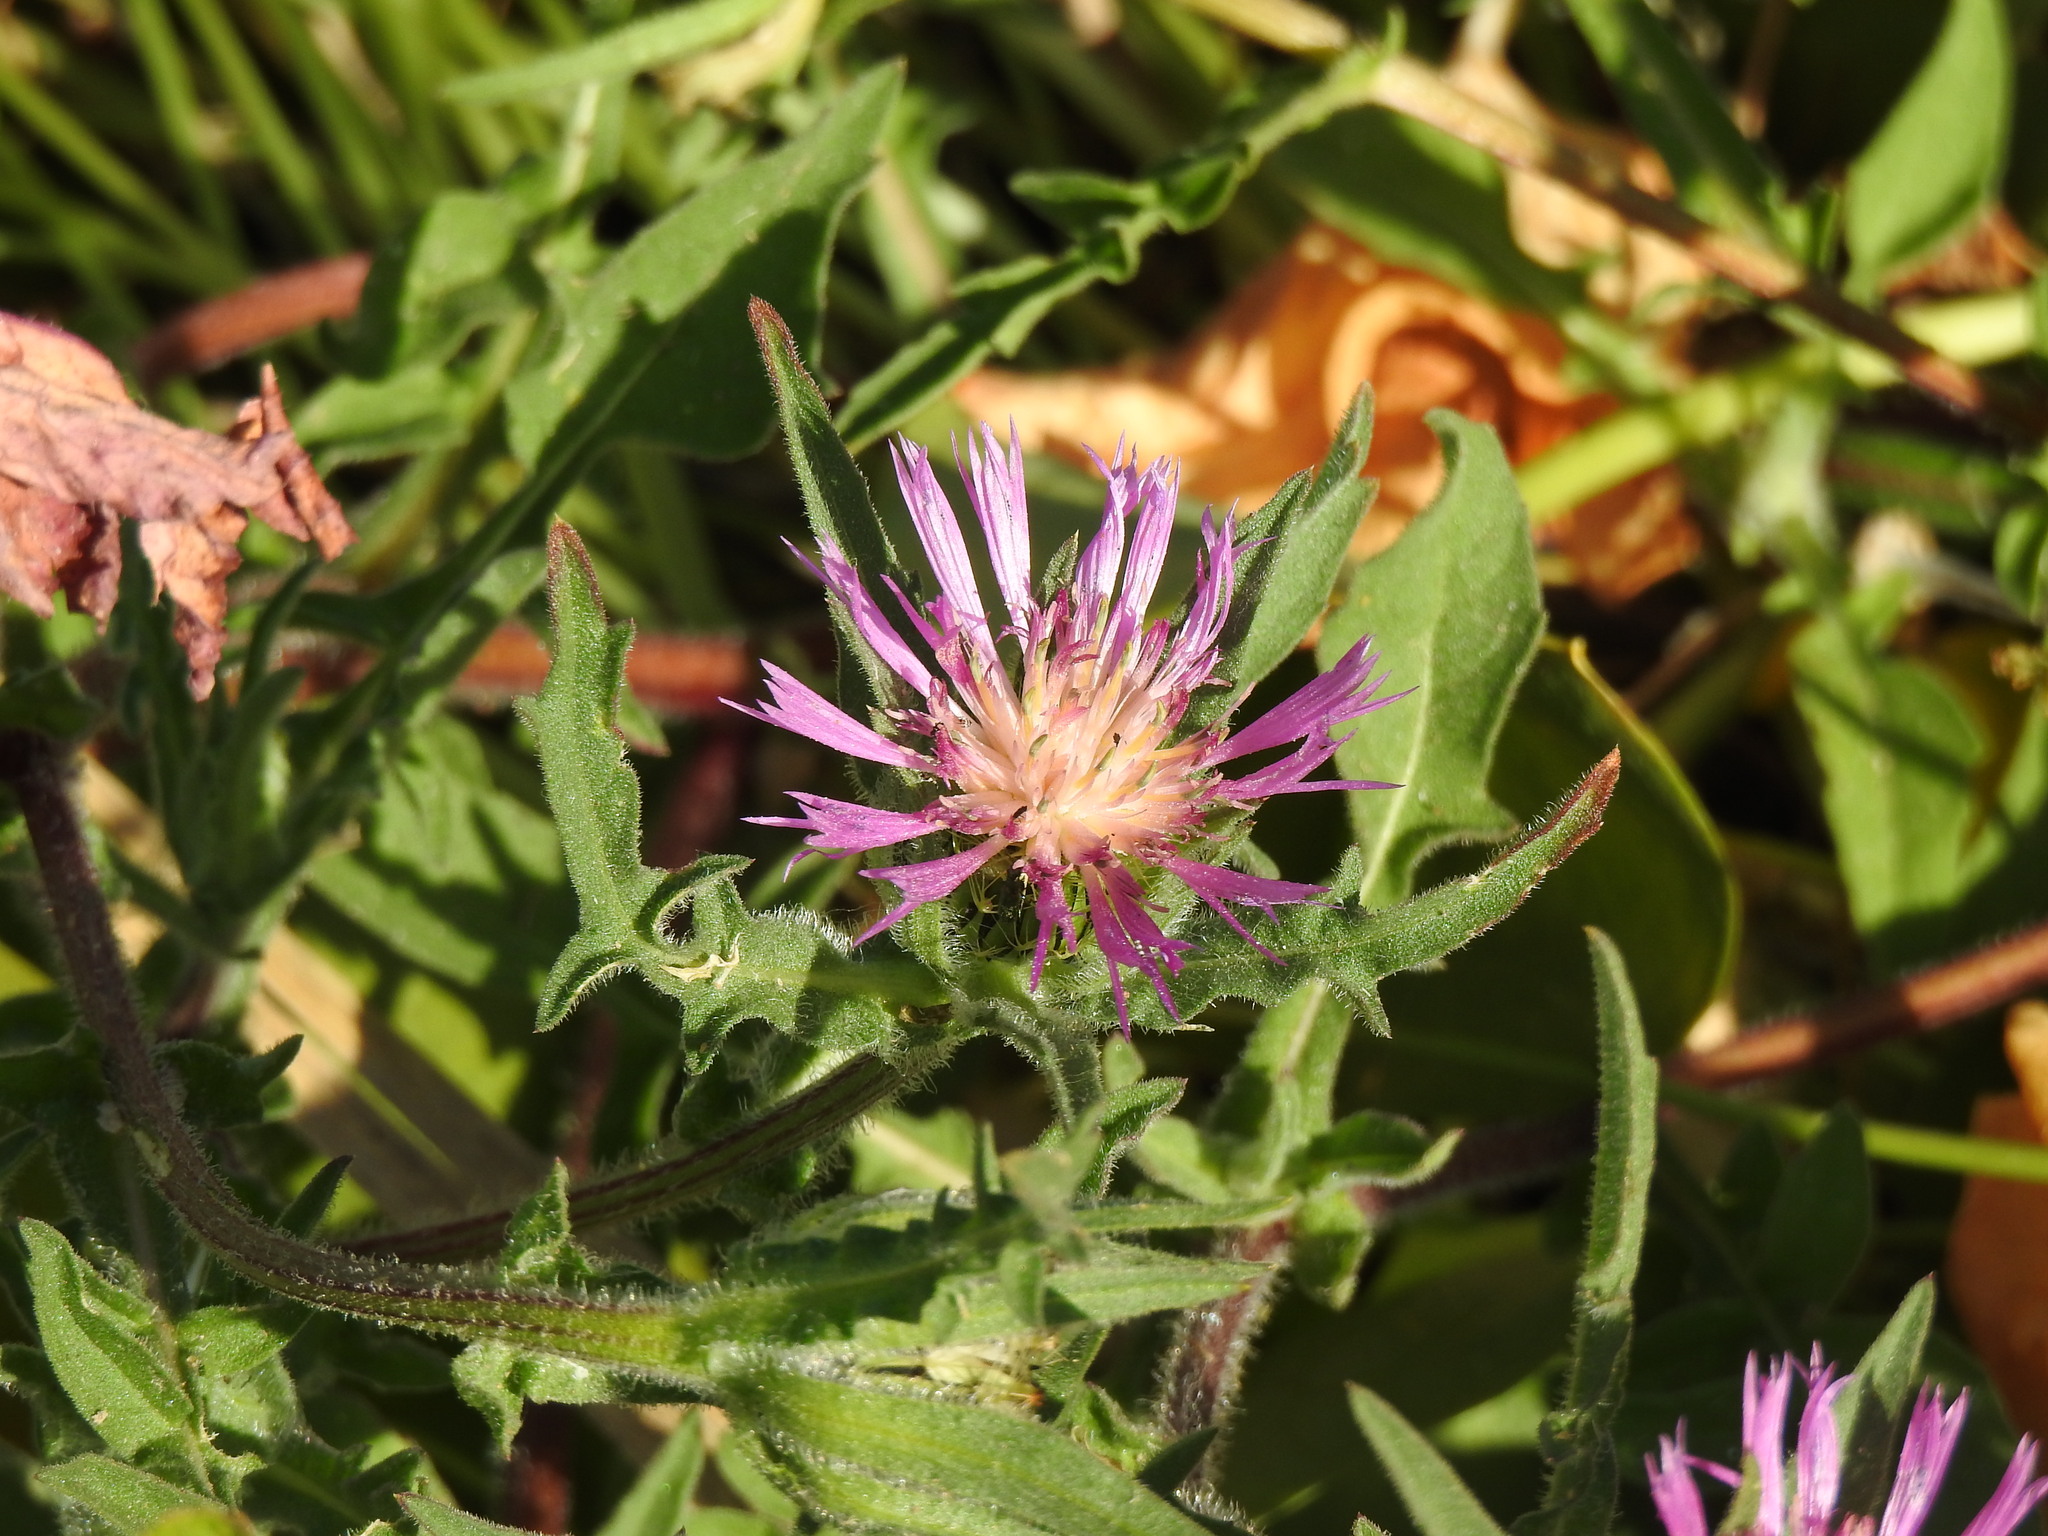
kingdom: Plantae
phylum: Tracheophyta
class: Magnoliopsida
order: Asterales
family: Asteraceae
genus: Centaurea
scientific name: Centaurea pullata
